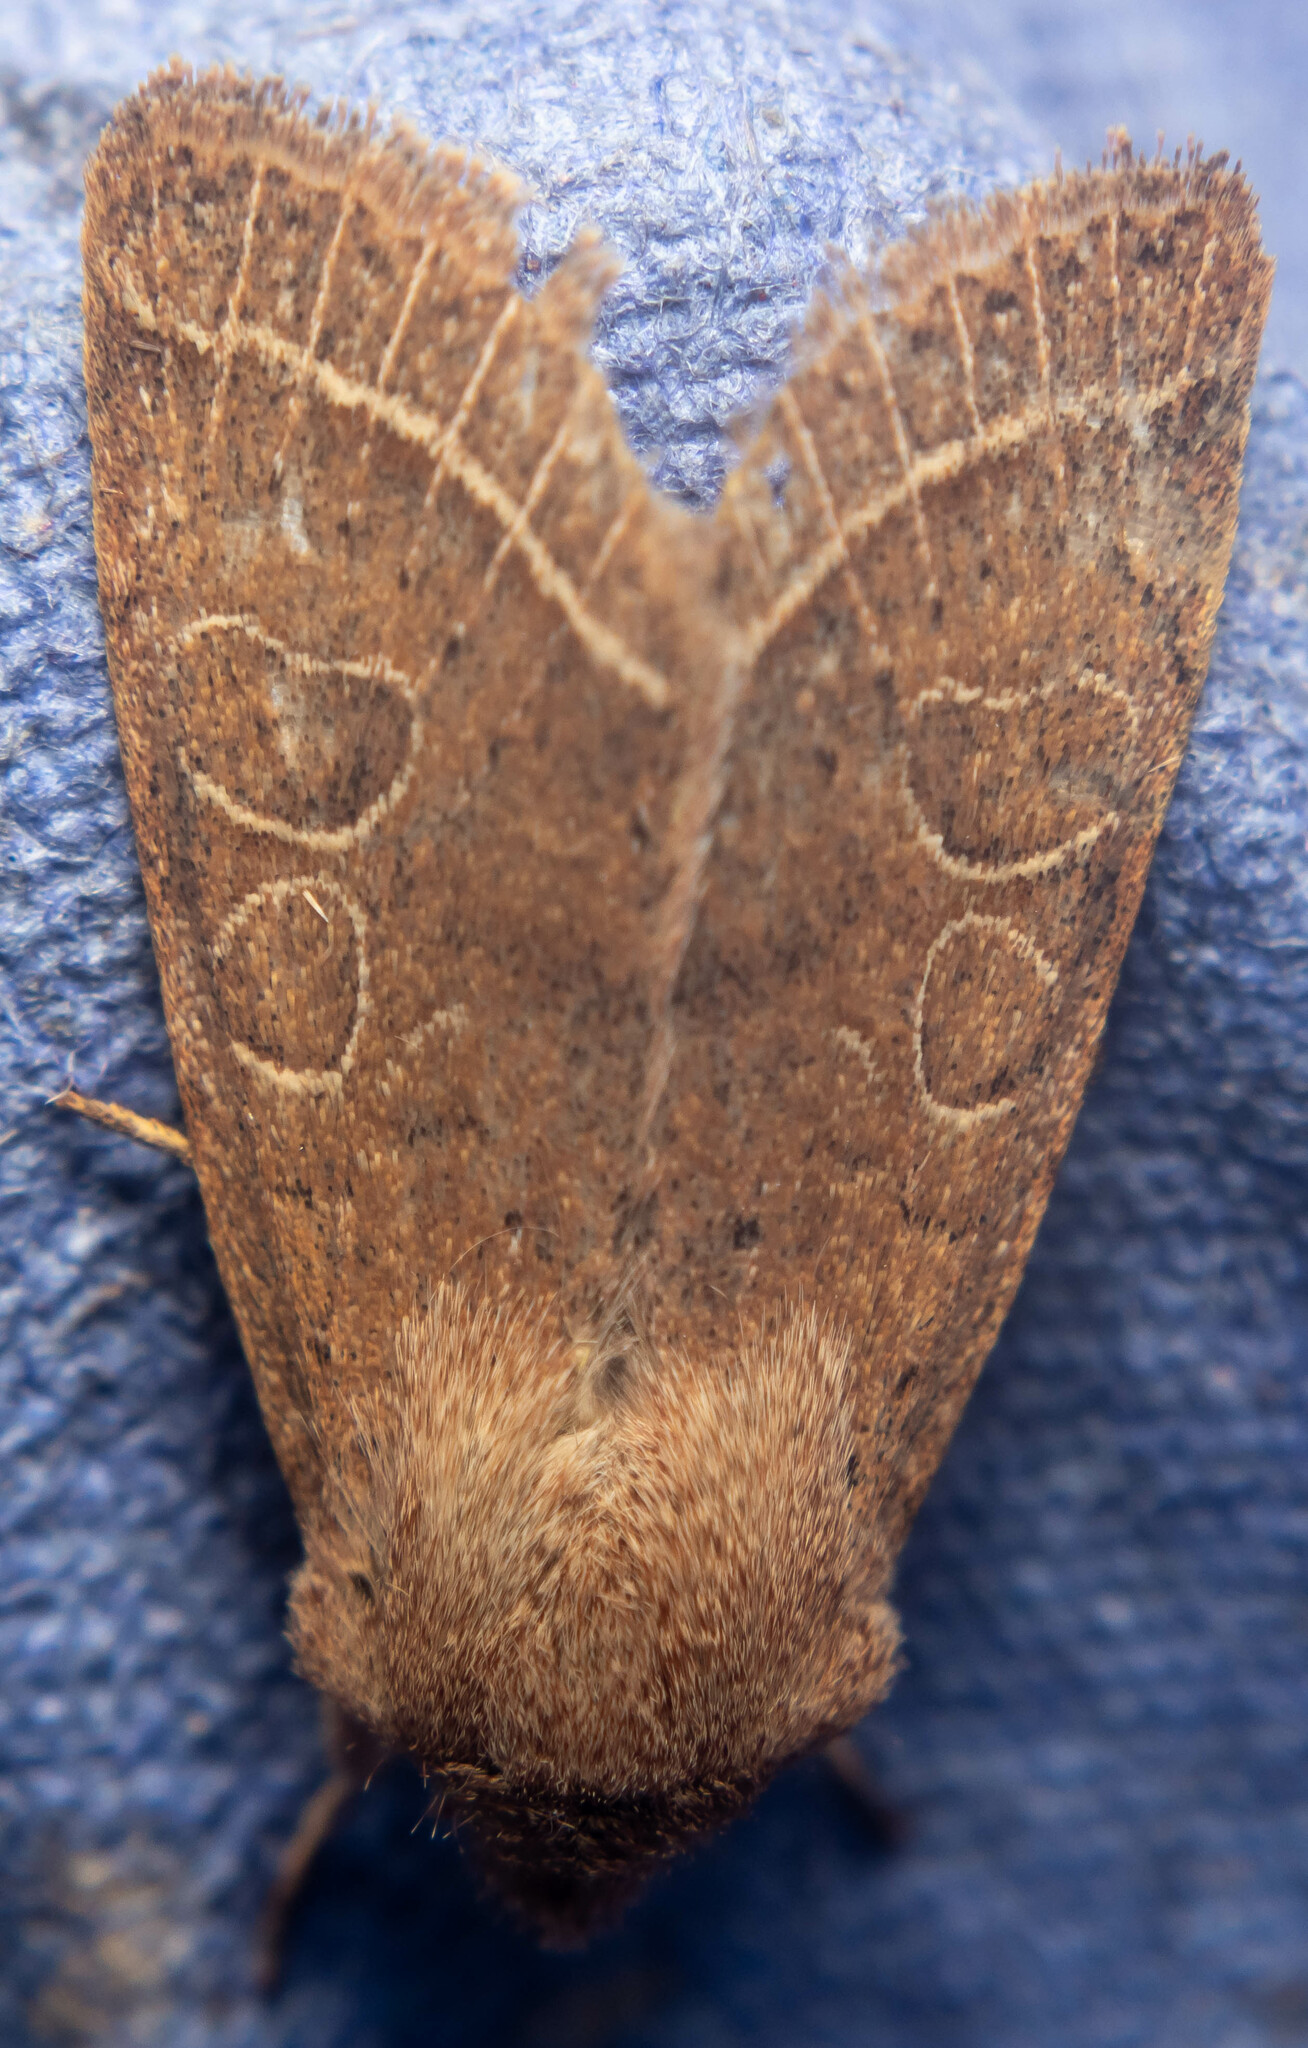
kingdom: Animalia
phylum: Arthropoda
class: Insecta
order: Lepidoptera
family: Noctuidae
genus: Orthosia
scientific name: Orthosia cerasi
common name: Common quaker
